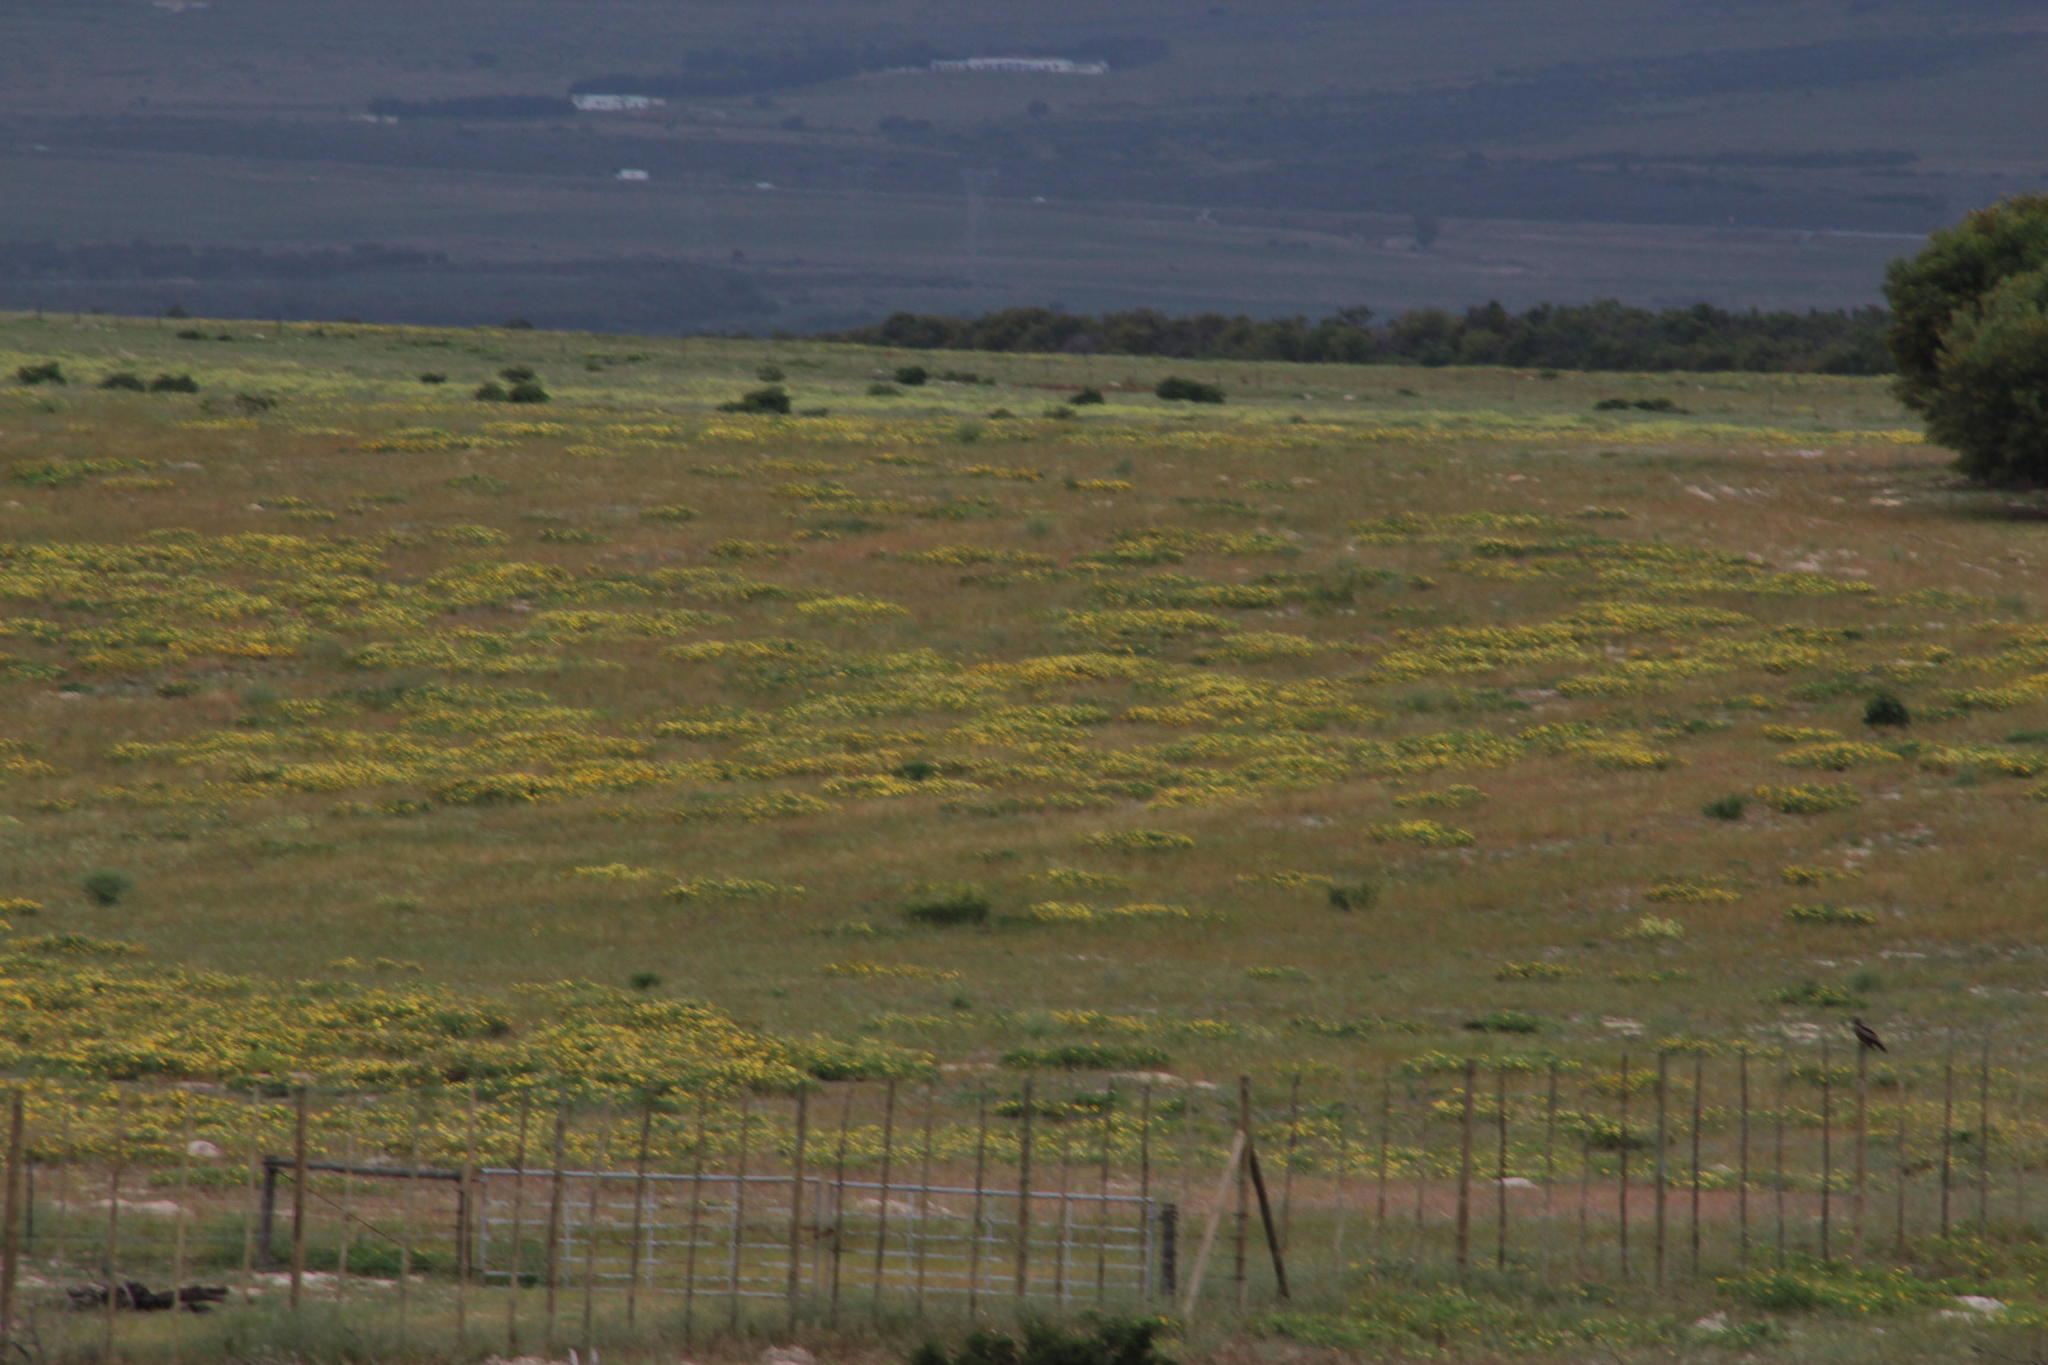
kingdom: Plantae
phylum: Tracheophyta
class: Magnoliopsida
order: Asterales
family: Asteraceae
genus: Arctotheca
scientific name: Arctotheca calendula
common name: Capeweed
